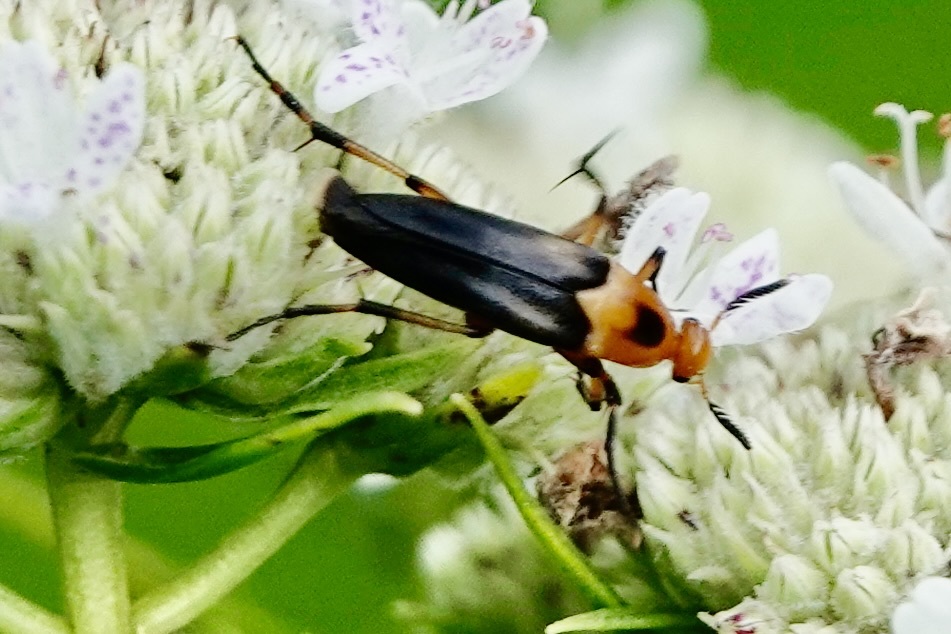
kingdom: Animalia
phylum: Arthropoda
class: Insecta
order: Coleoptera
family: Ripiphoridae
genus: Macrosiagon
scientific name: Macrosiagon limbatum
